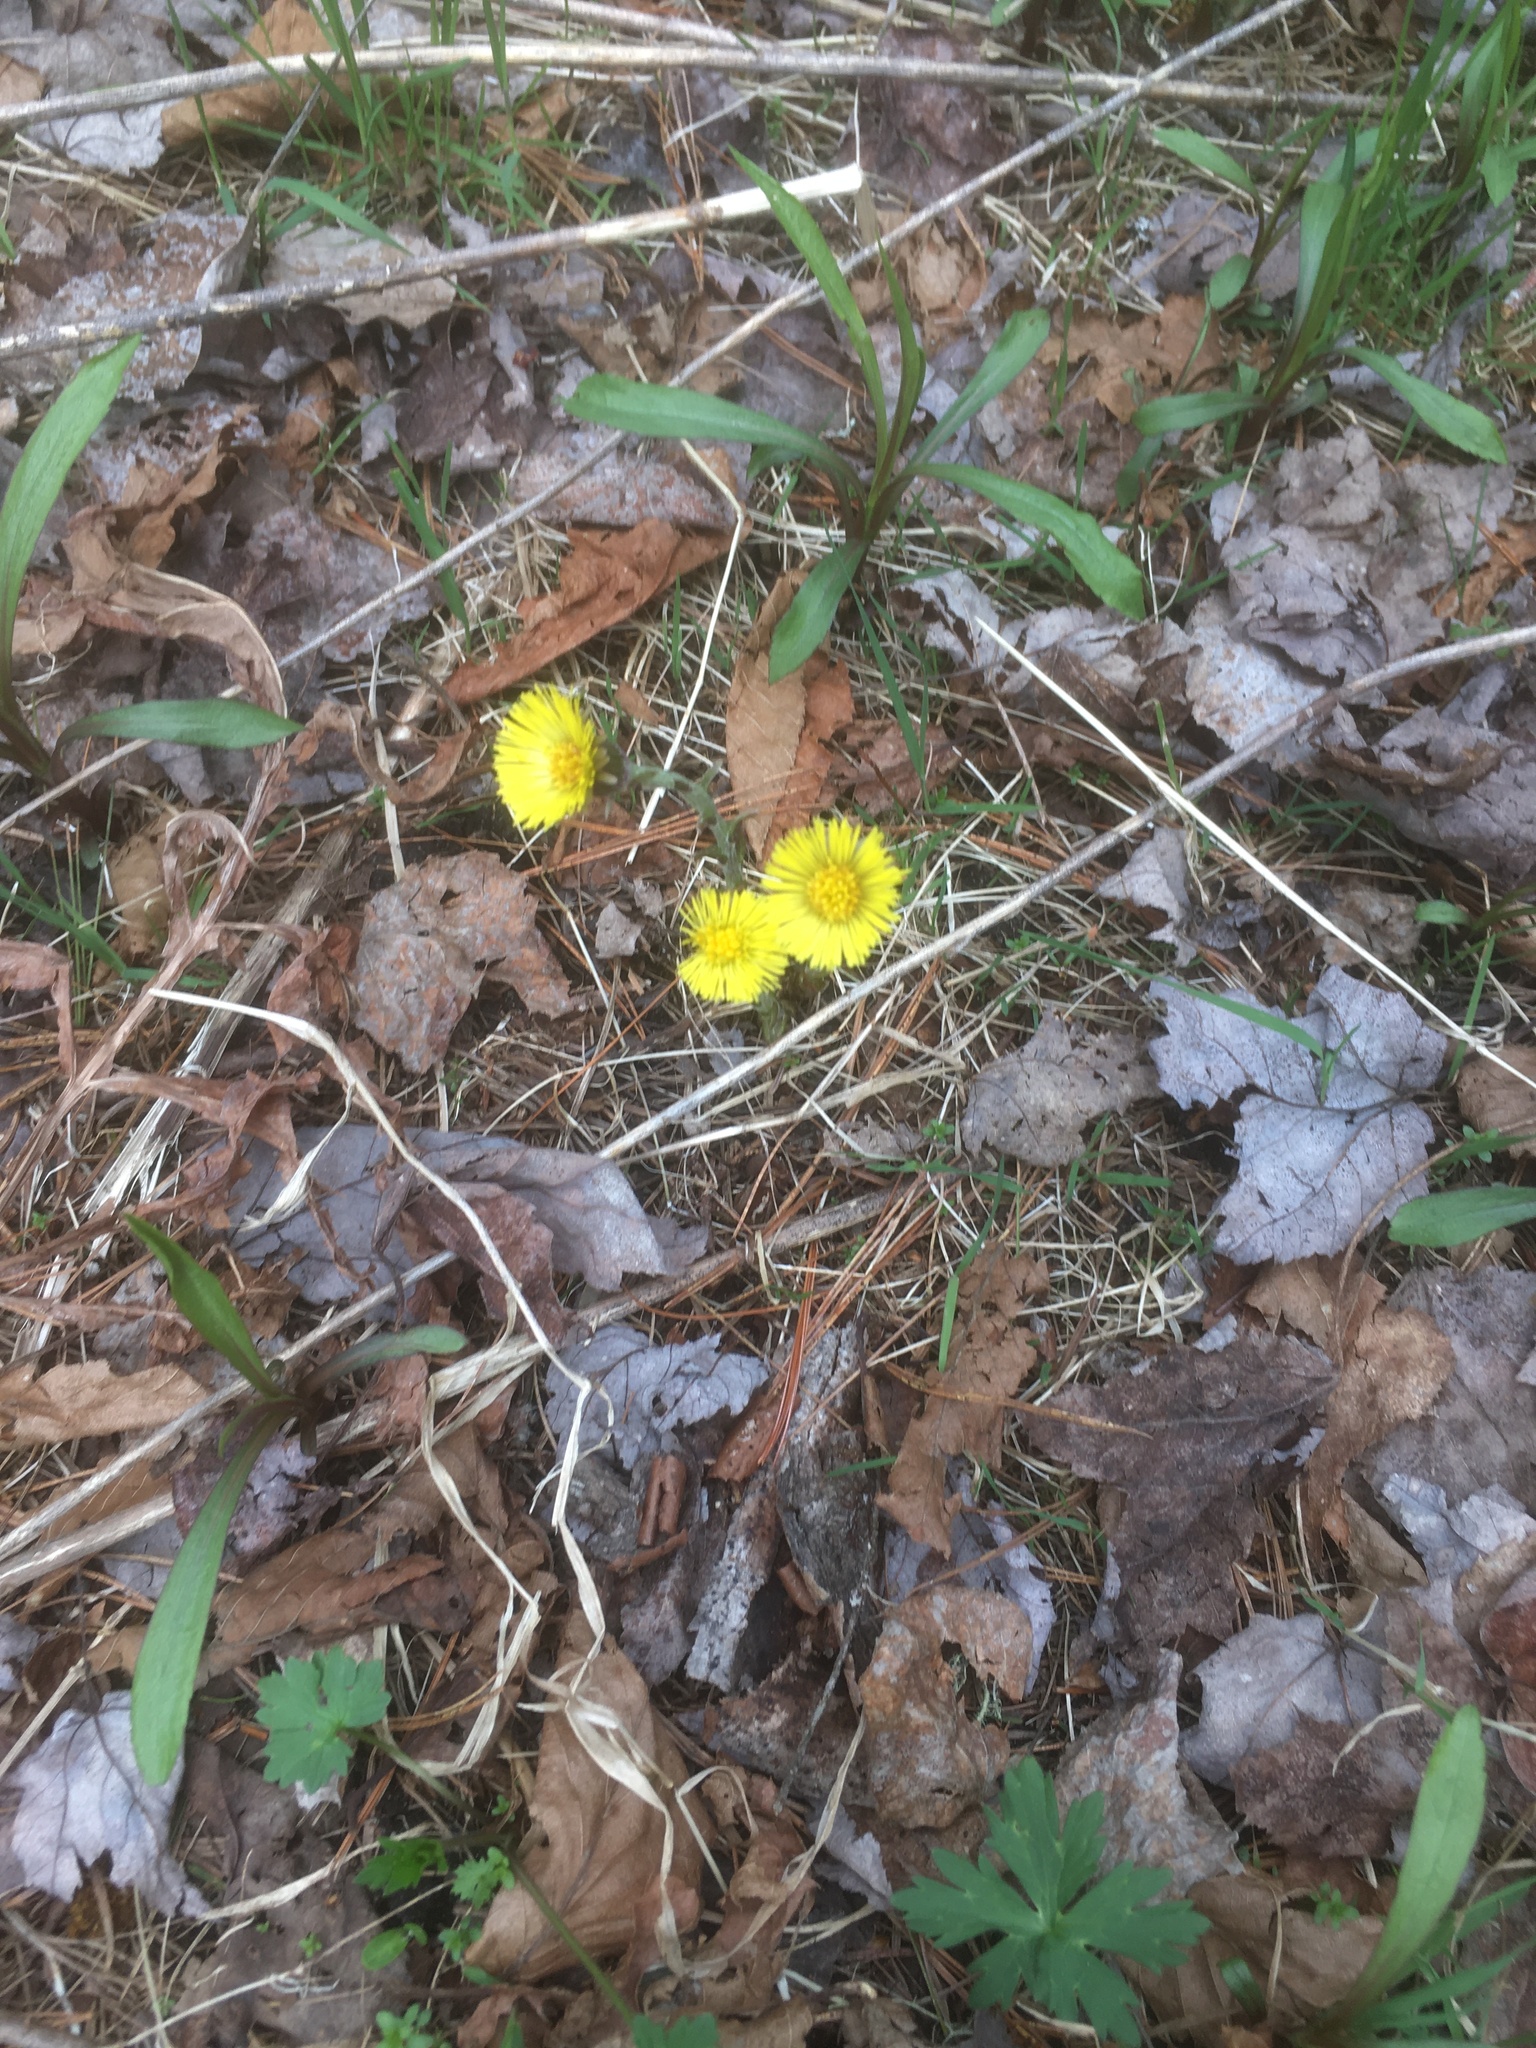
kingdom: Plantae
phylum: Tracheophyta
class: Magnoliopsida
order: Asterales
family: Asteraceae
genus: Tussilago
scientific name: Tussilago farfara
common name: Coltsfoot
